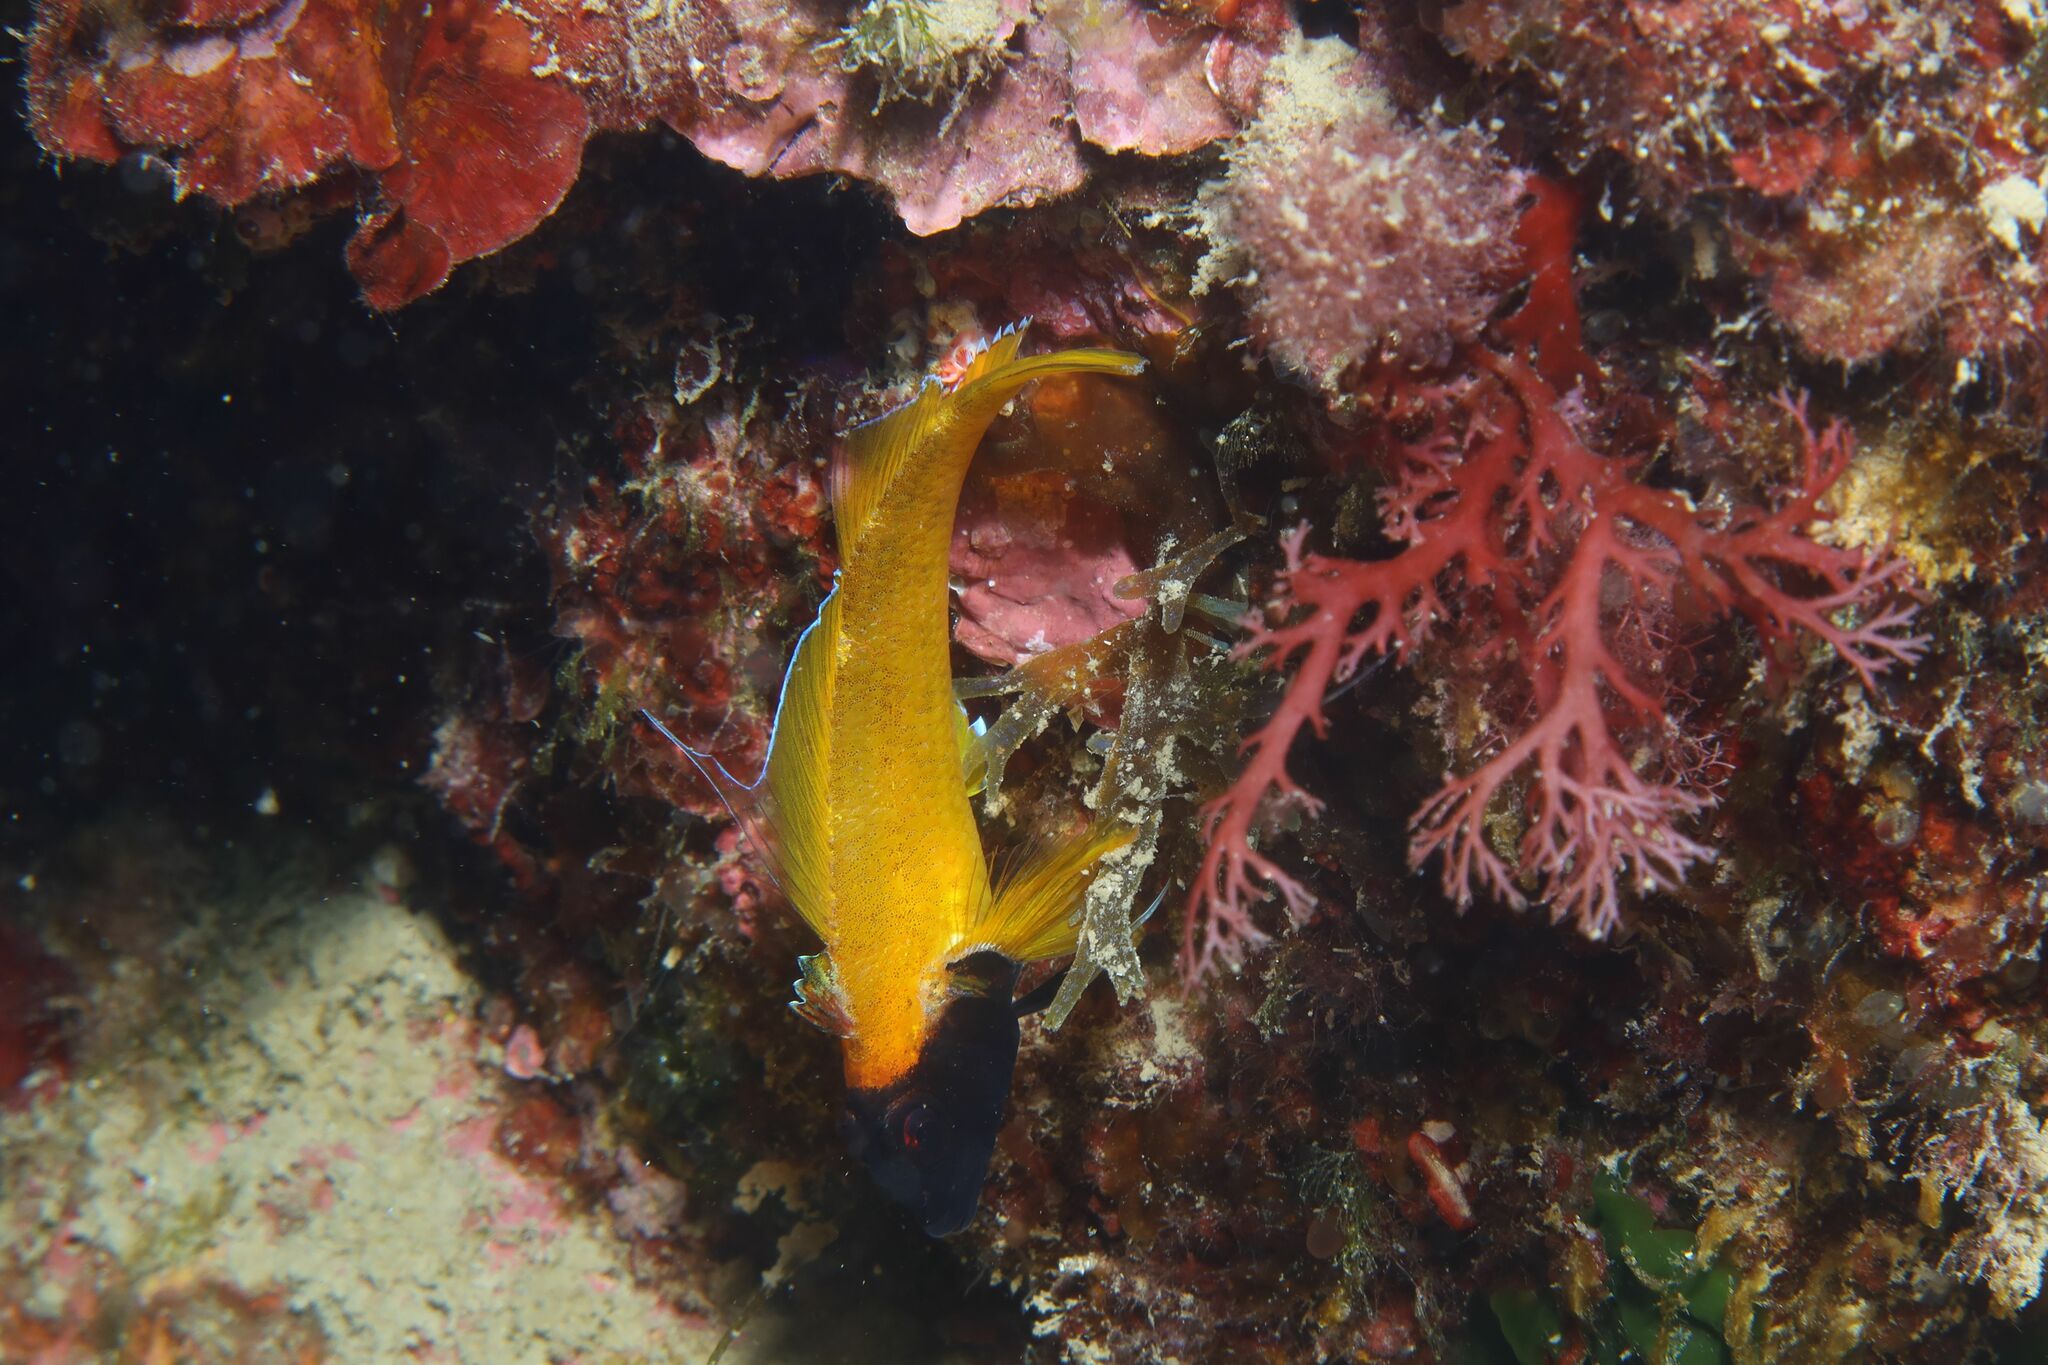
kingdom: Animalia
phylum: Chordata
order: Perciformes
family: Tripterygiidae
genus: Tripterygion
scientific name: Tripterygion delaisi
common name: Black-face blenny
